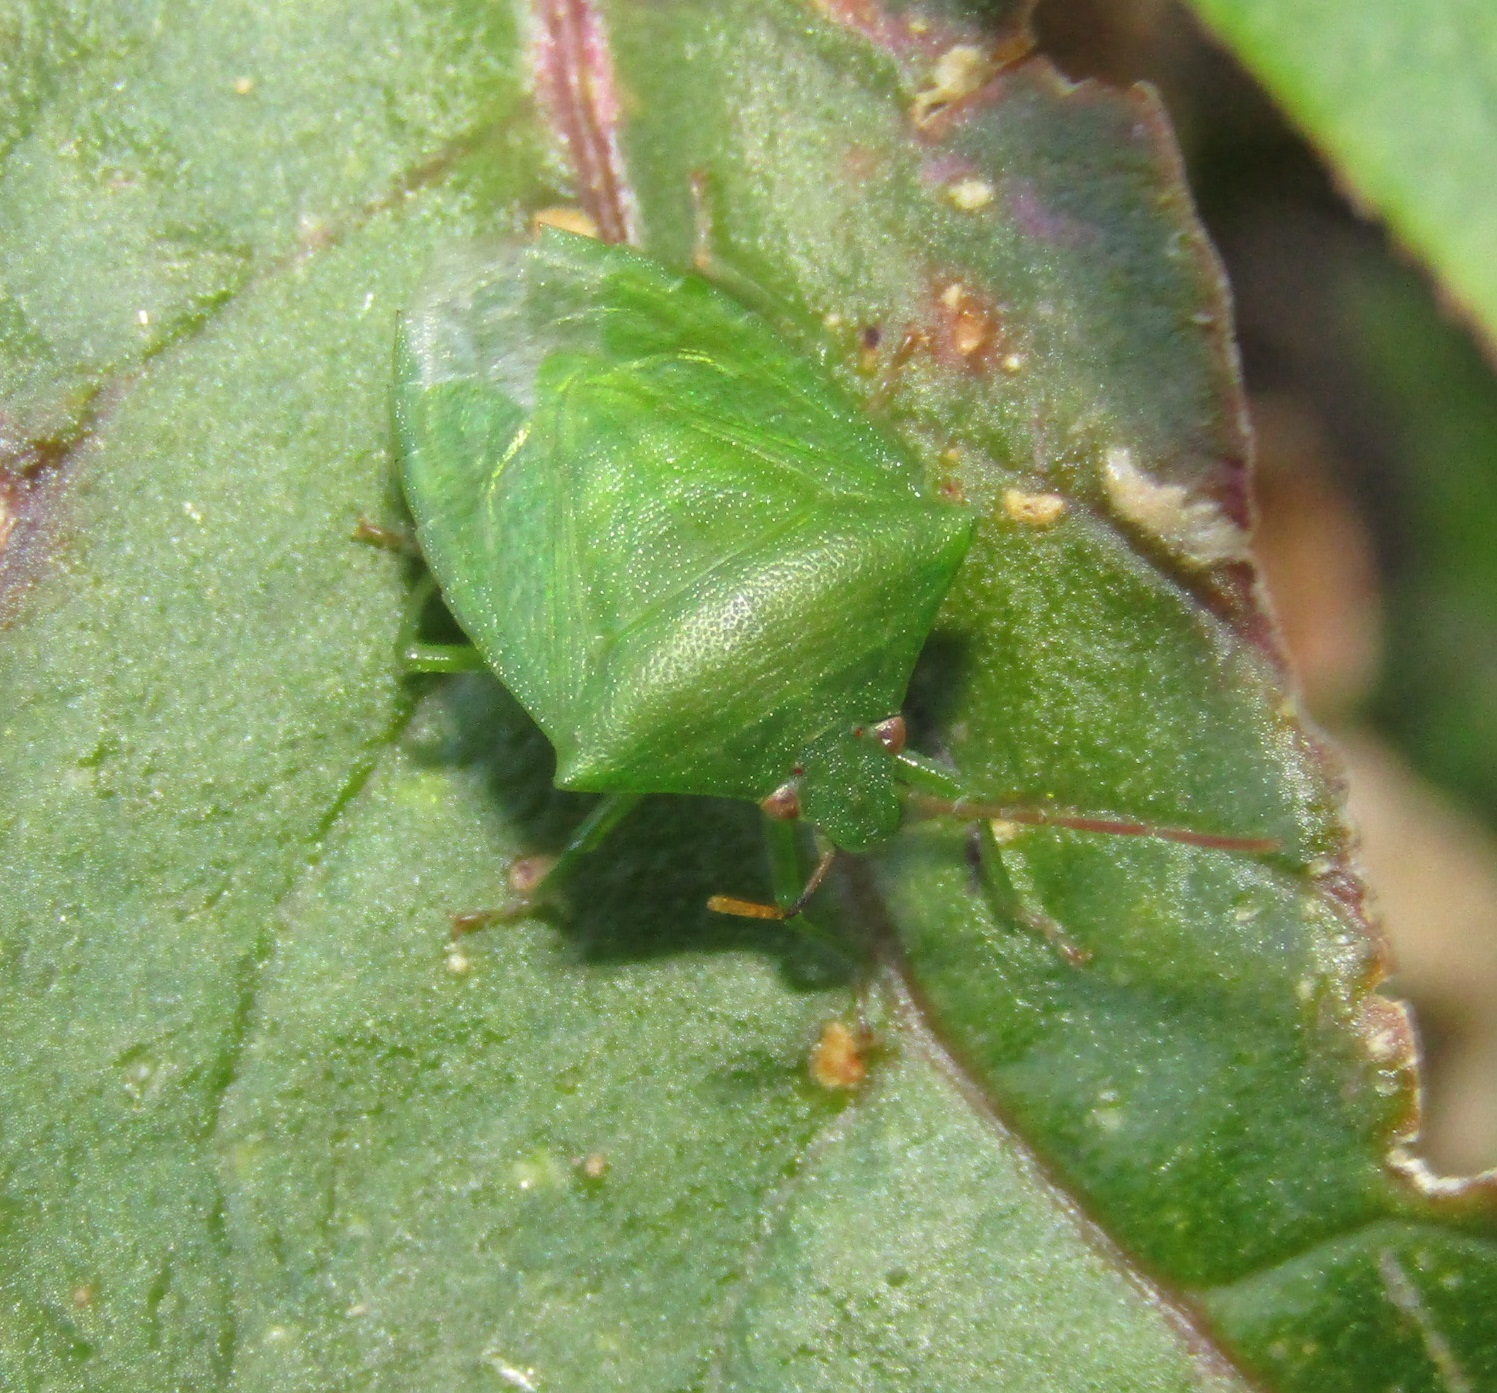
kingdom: Animalia
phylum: Arthropoda
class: Insecta
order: Hemiptera
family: Pentatomidae
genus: Cuspicona
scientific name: Cuspicona simplex
